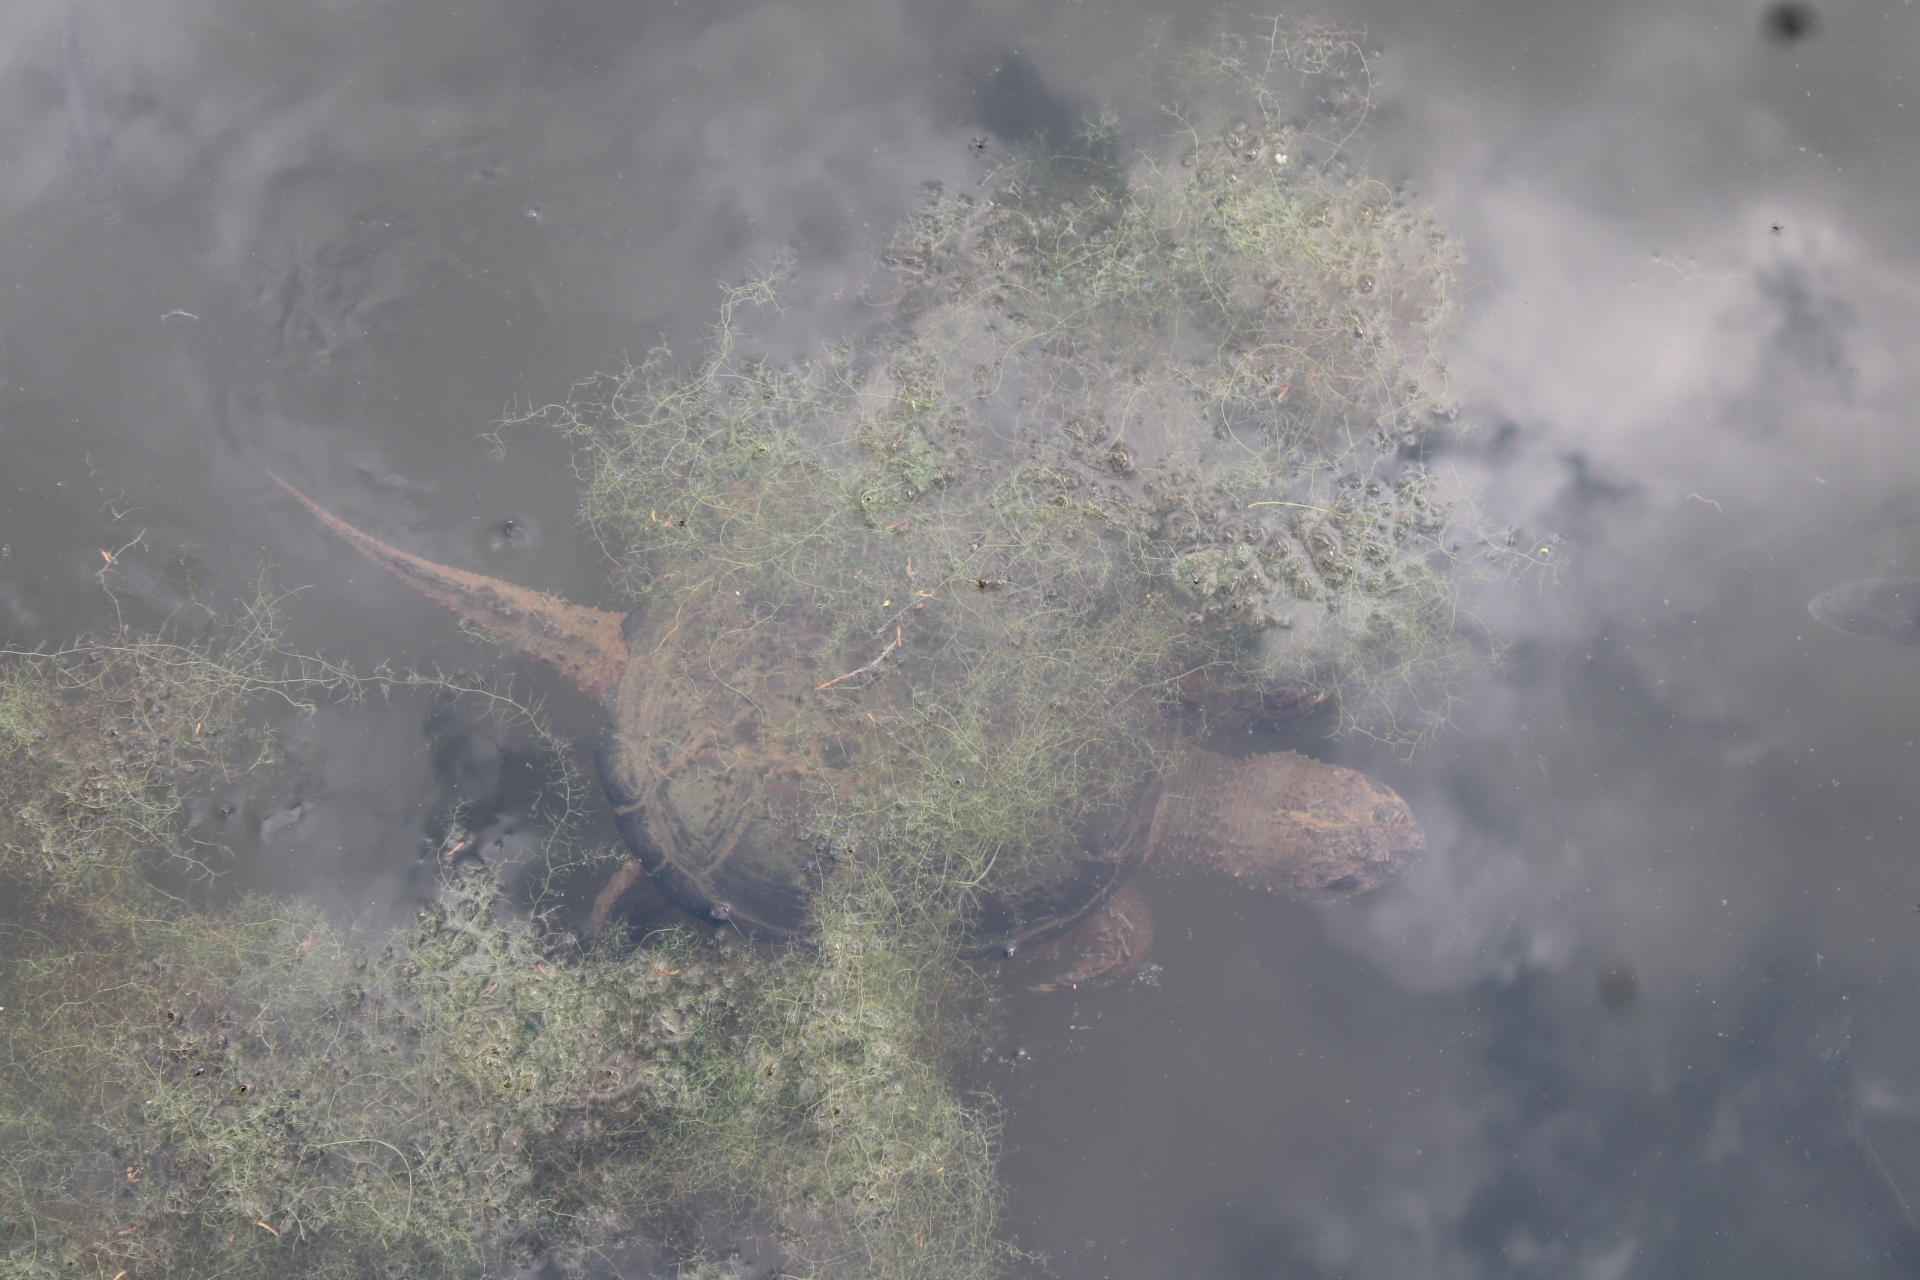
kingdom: Animalia
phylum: Chordata
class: Testudines
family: Chelydridae
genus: Chelydra
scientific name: Chelydra serpentina
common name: Common snapping turtle
